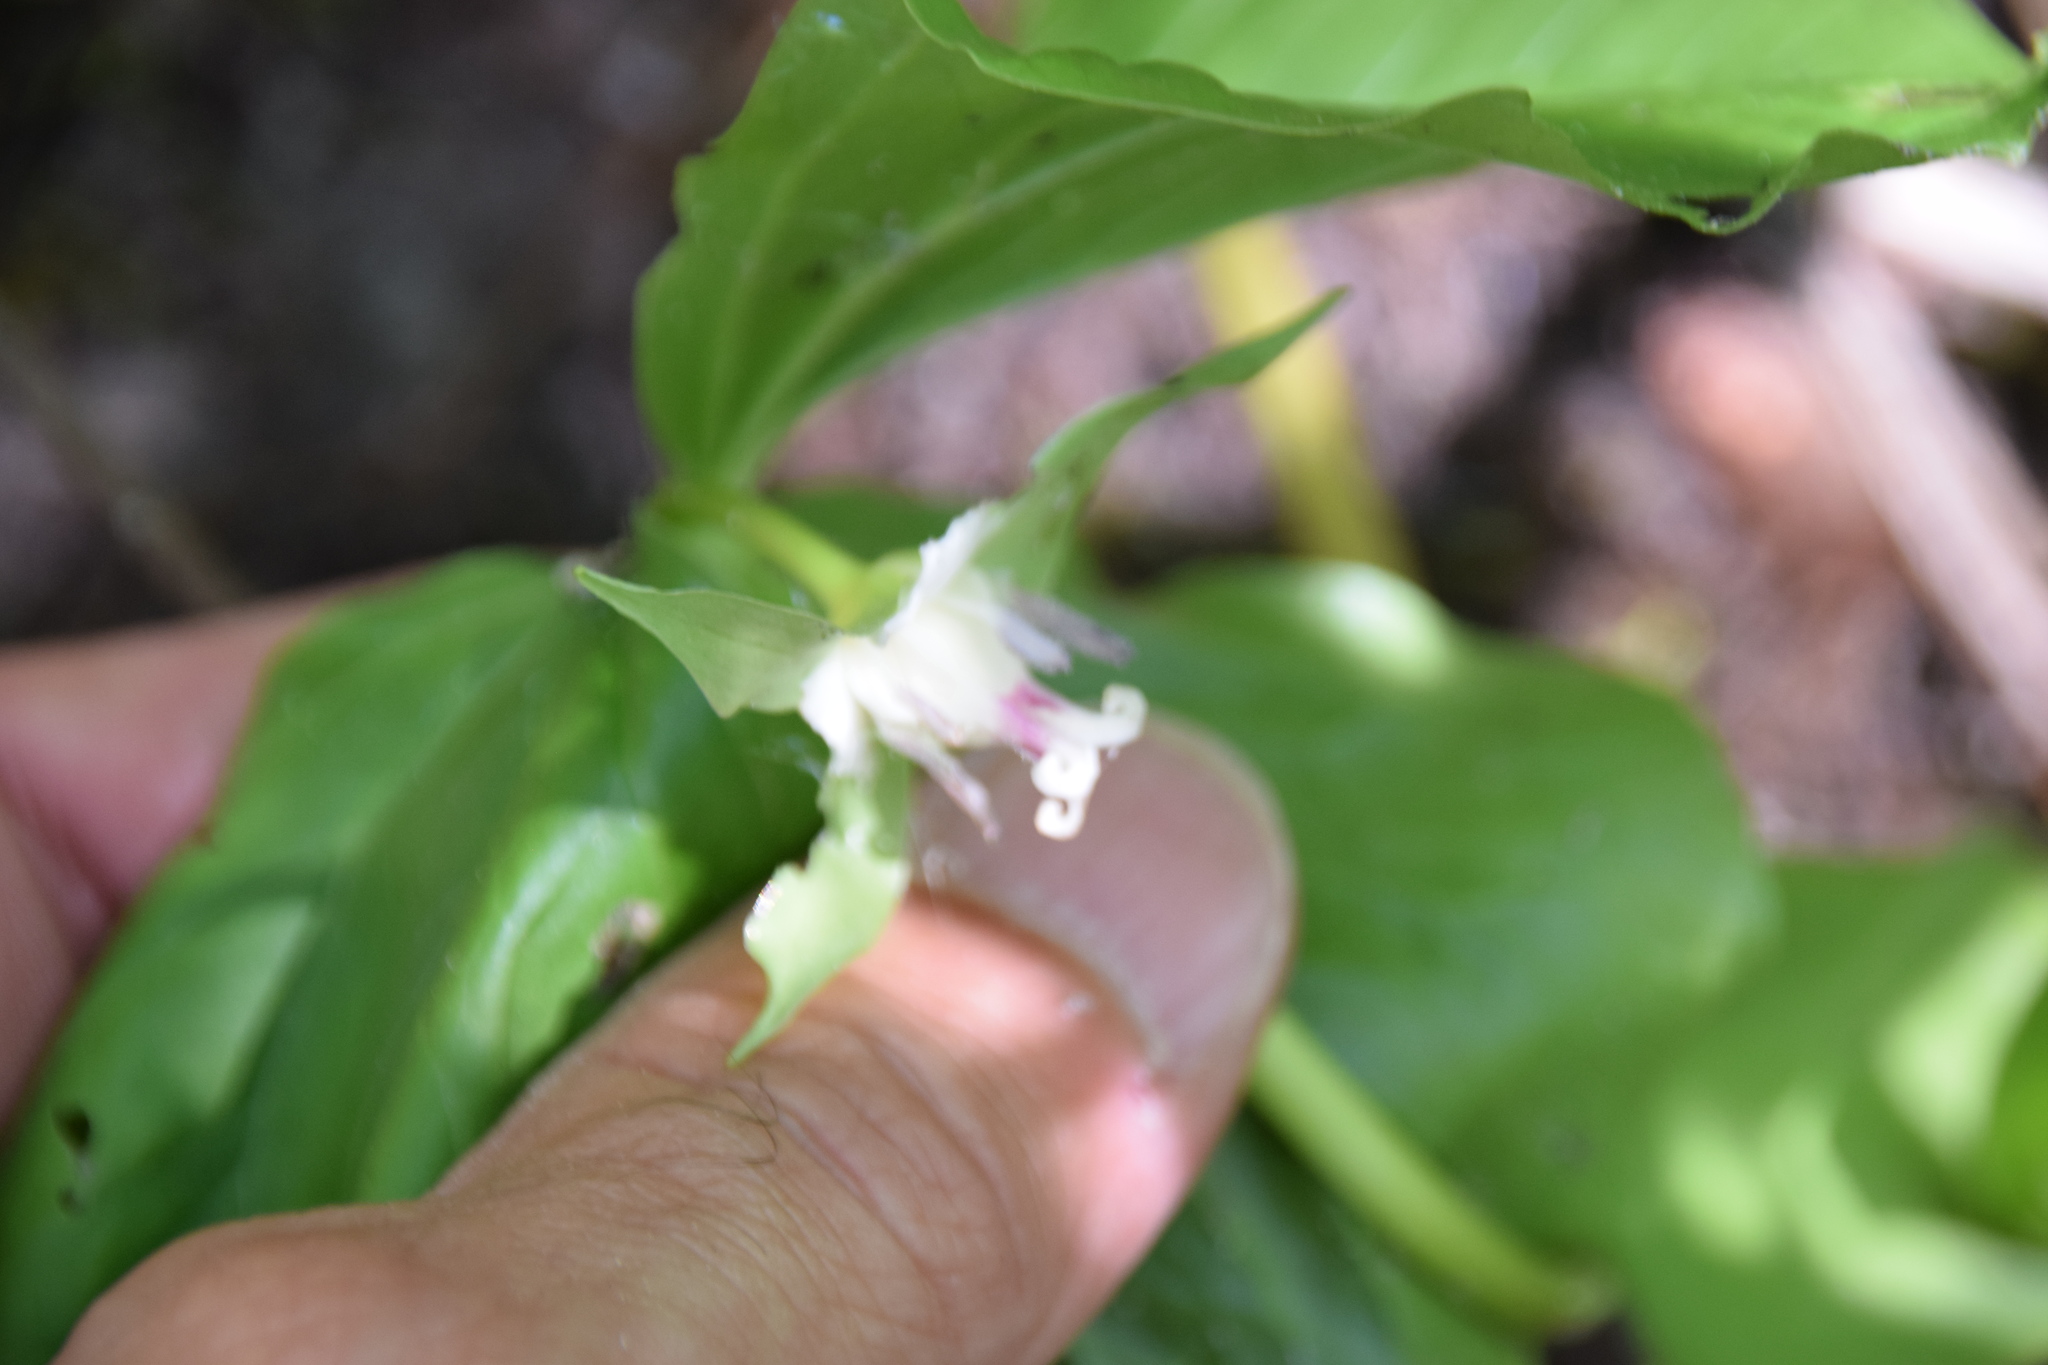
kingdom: Plantae
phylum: Tracheophyta
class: Liliopsida
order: Liliales
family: Melanthiaceae
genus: Trillium
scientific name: Trillium cernuum
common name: Nodding trillium
